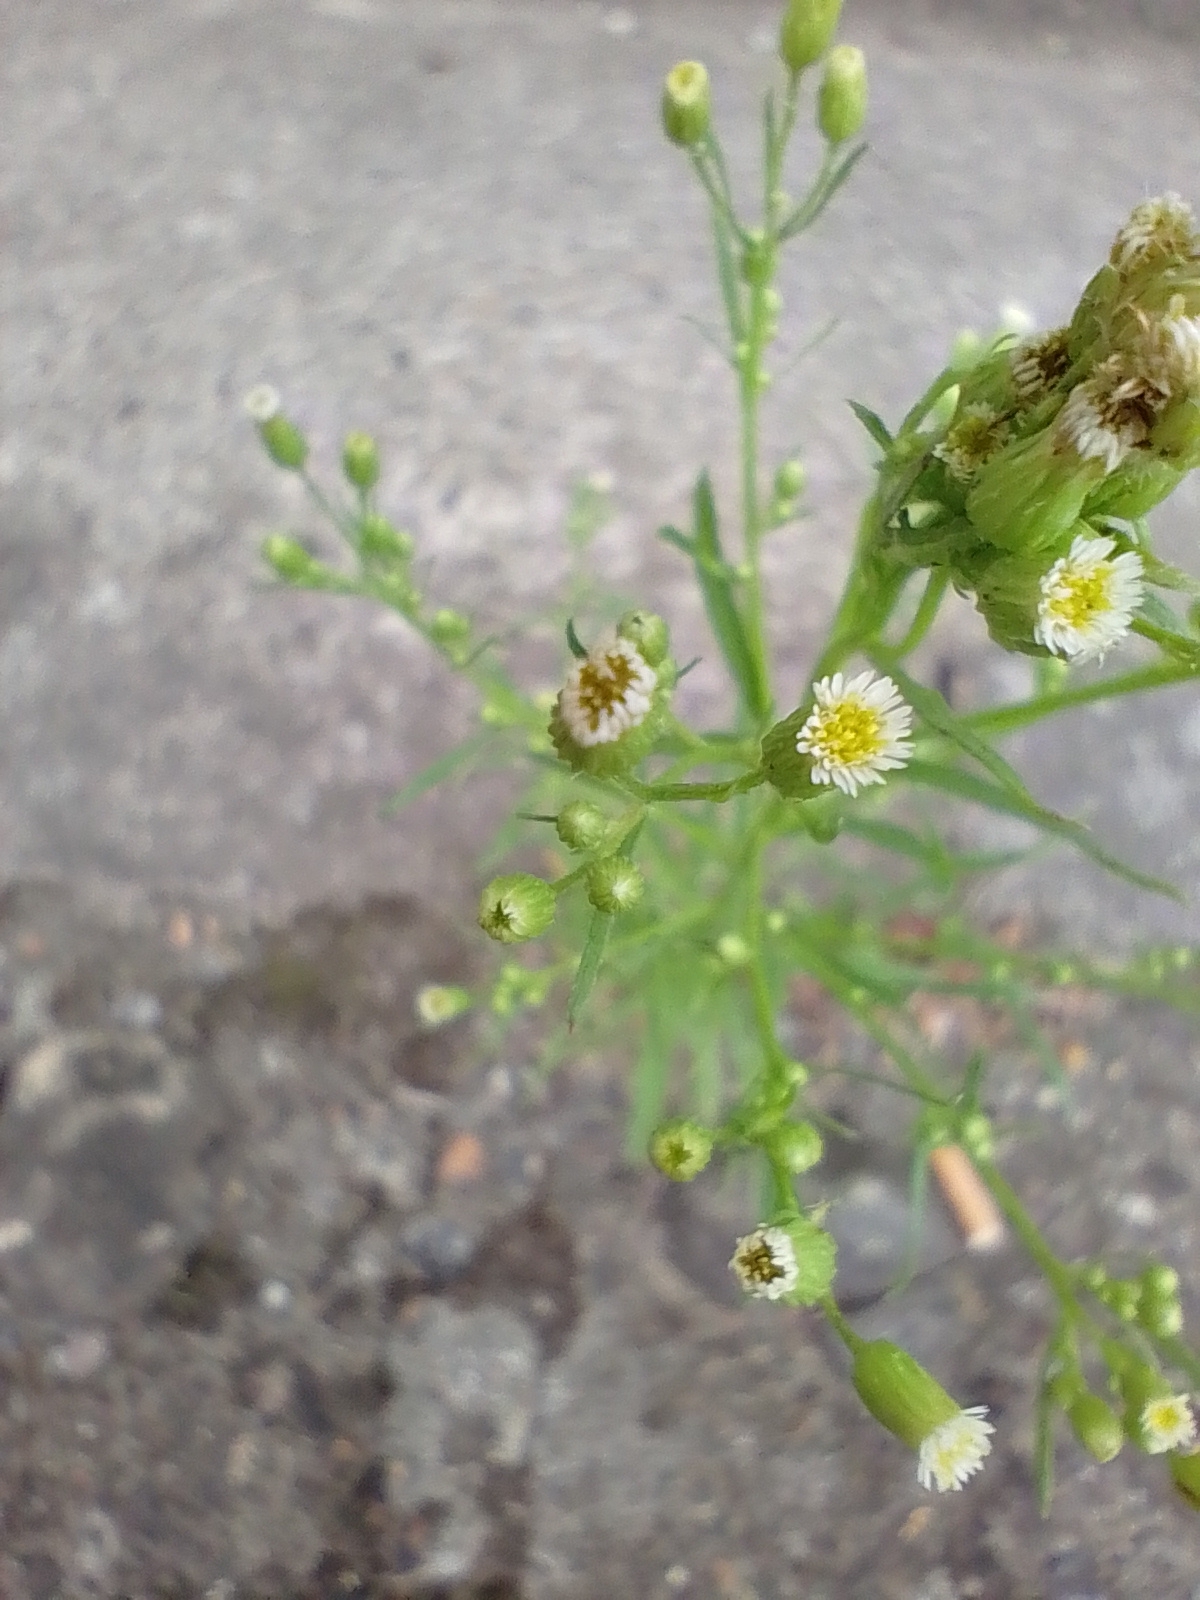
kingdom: Plantae
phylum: Tracheophyta
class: Magnoliopsida
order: Asterales
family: Asteraceae
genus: Erigeron
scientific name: Erigeron canadensis
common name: Canadian fleabane
